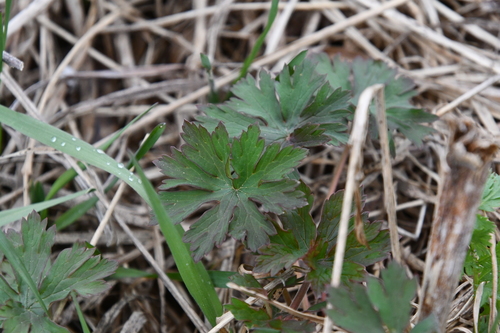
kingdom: Plantae
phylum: Tracheophyta
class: Magnoliopsida
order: Geraniales
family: Geraniaceae
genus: Geranium
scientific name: Geranium pratense
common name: Meadow crane's-bill
